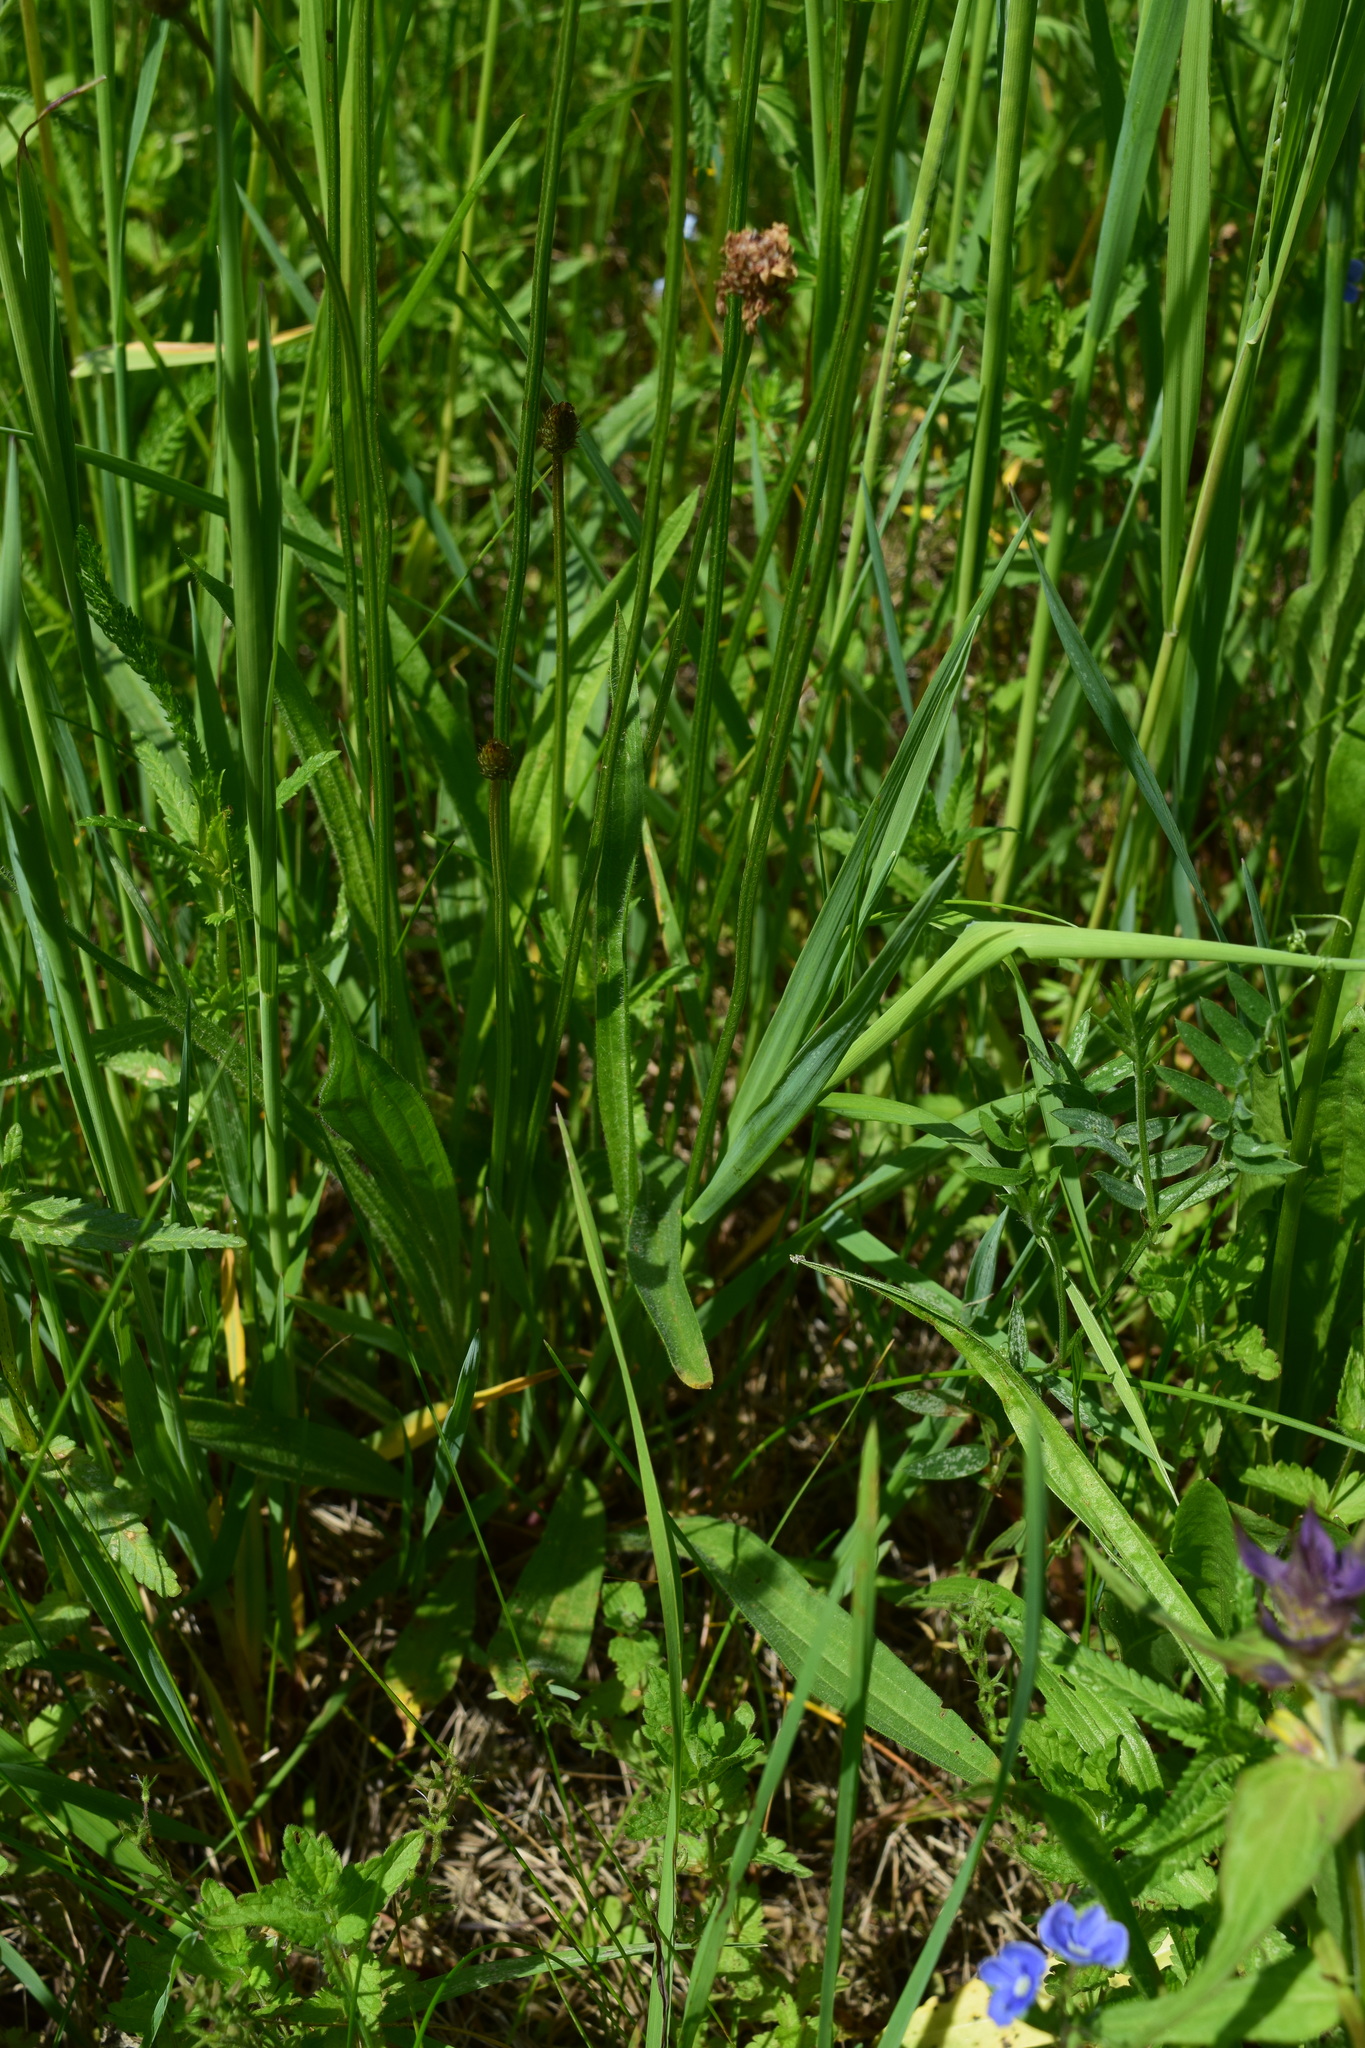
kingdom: Plantae
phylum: Tracheophyta
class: Magnoliopsida
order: Lamiales
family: Plantaginaceae
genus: Plantago
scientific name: Plantago lanceolata
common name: Ribwort plantain
